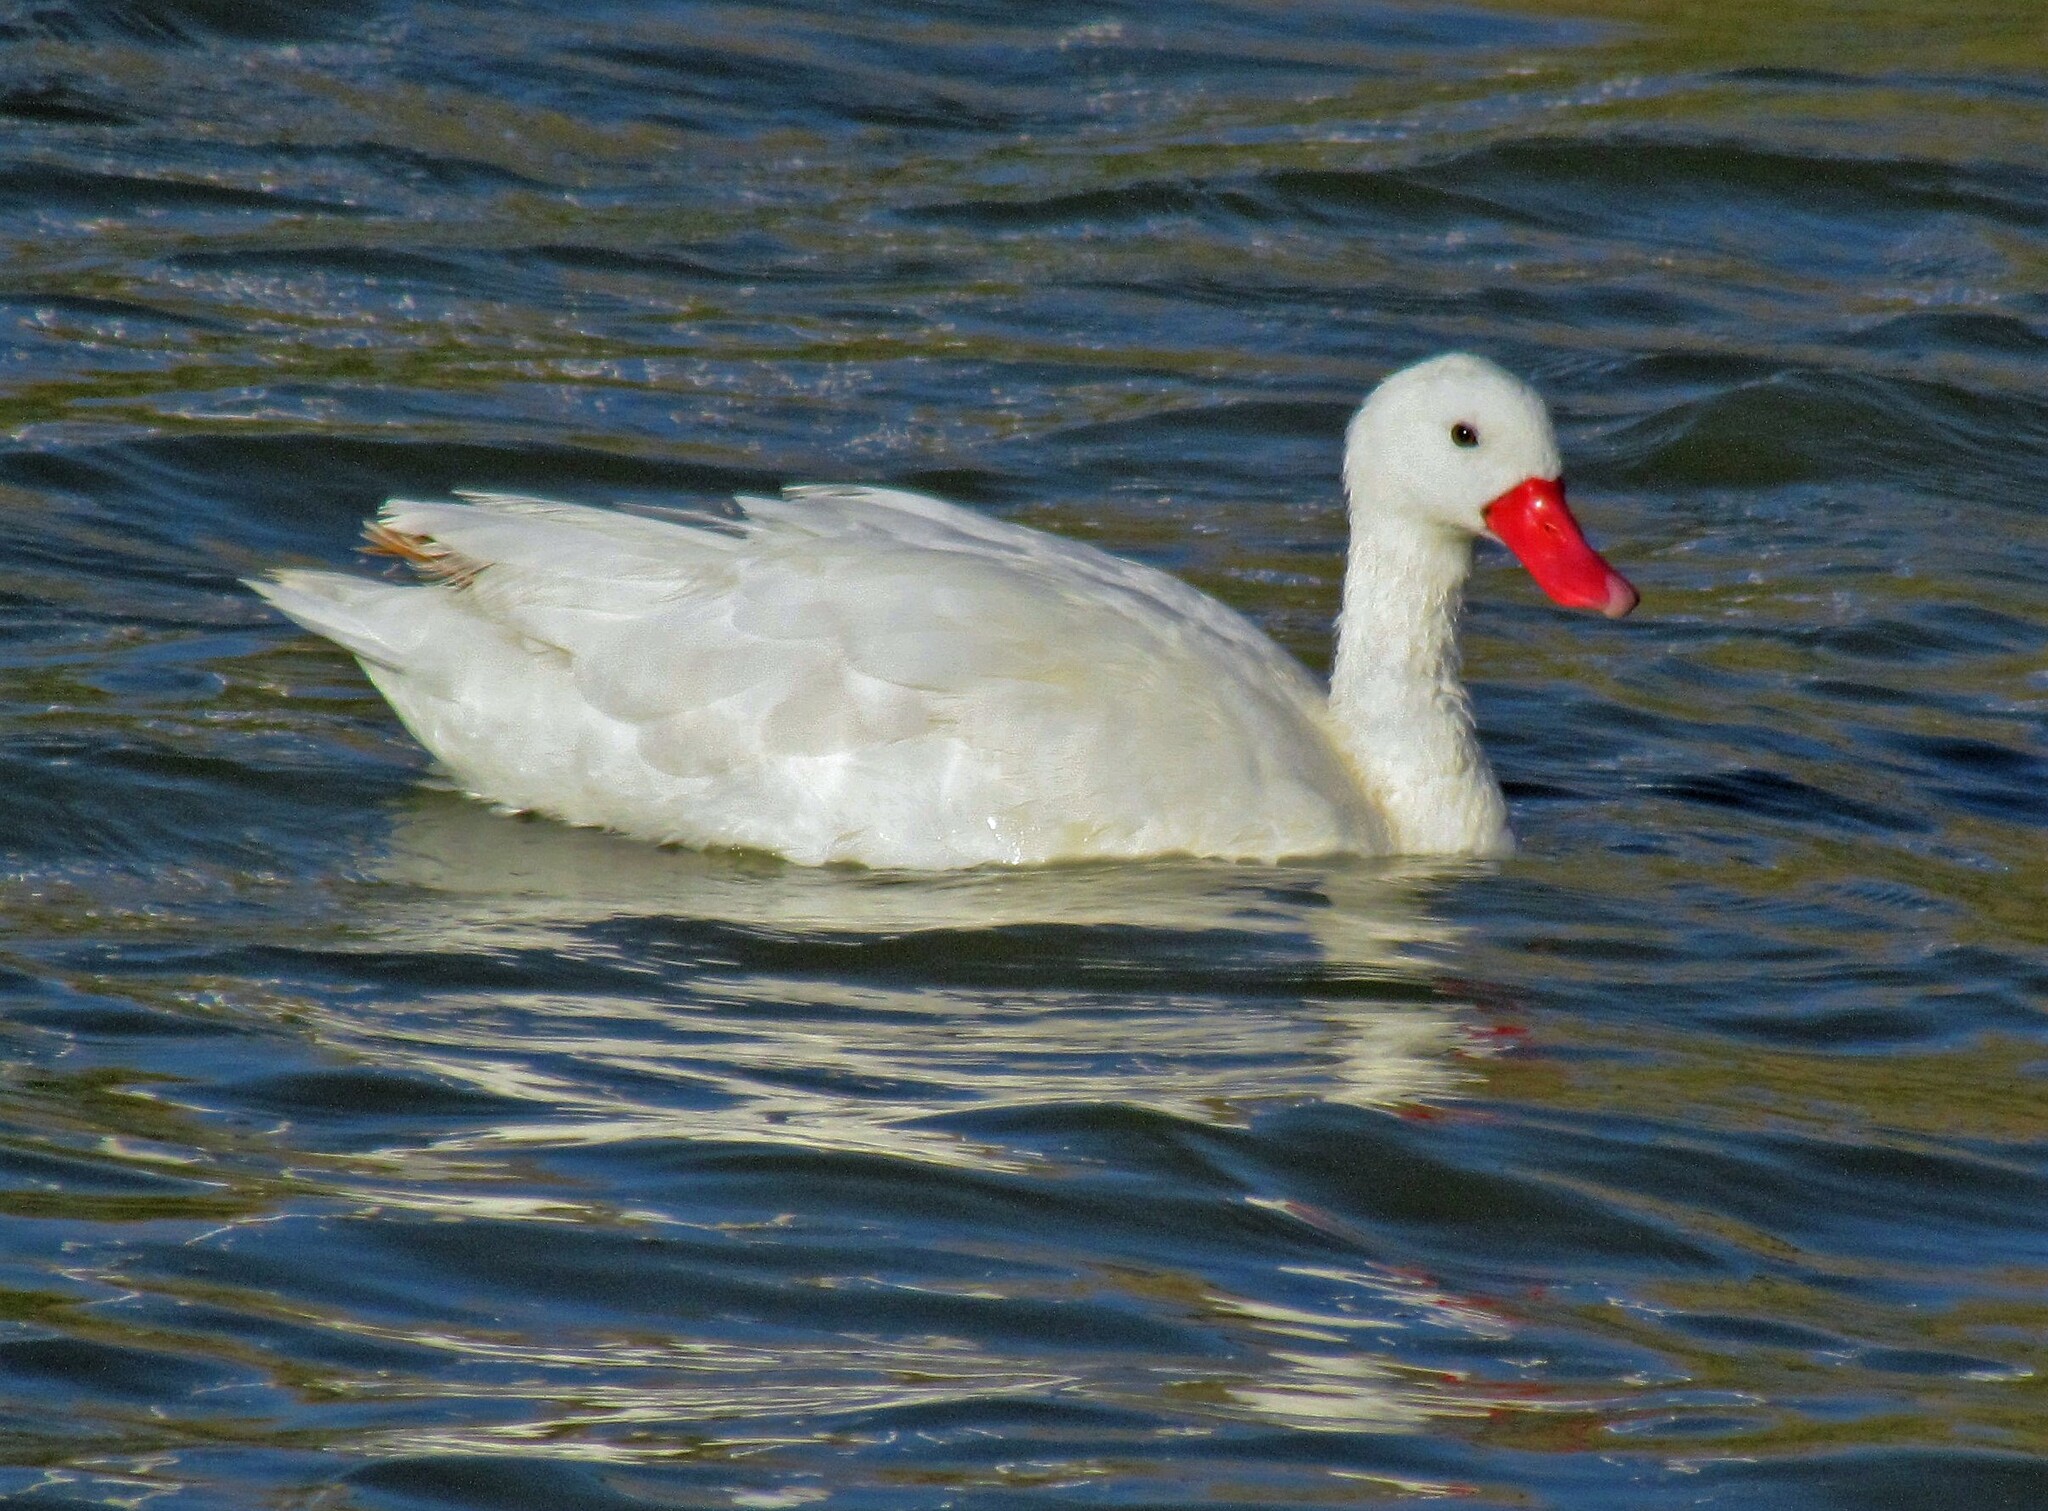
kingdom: Animalia
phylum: Chordata
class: Aves
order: Anseriformes
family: Anatidae
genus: Coscoroba
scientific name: Coscoroba coscoroba
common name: Coscoroba swan
